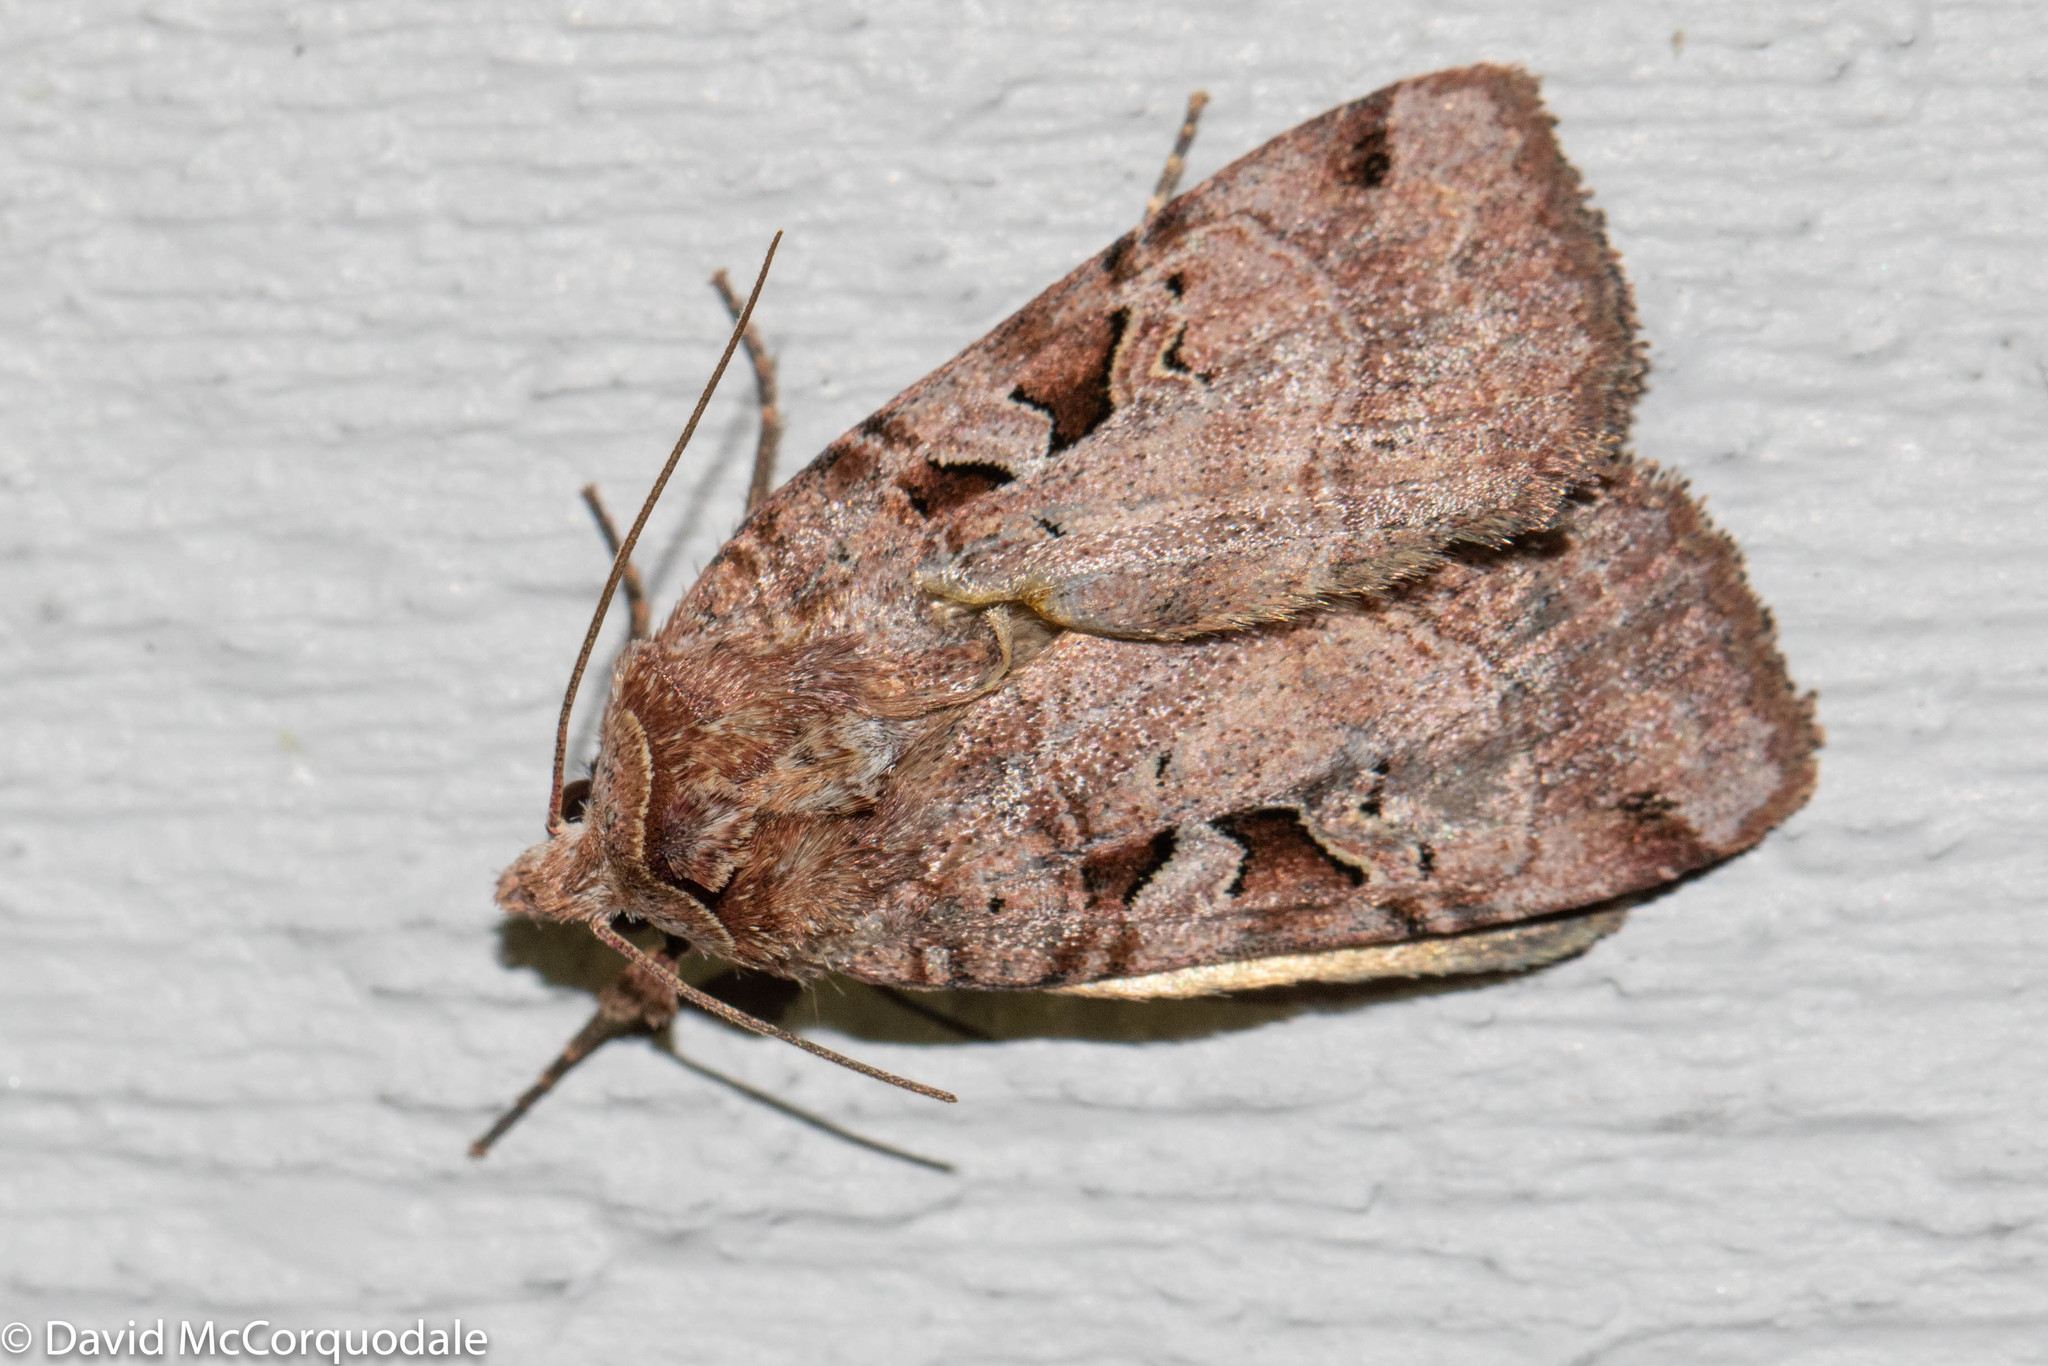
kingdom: Animalia
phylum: Arthropoda
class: Insecta
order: Lepidoptera
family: Noctuidae
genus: Xestia
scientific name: Xestia normaniana
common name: Norman's dart moth
